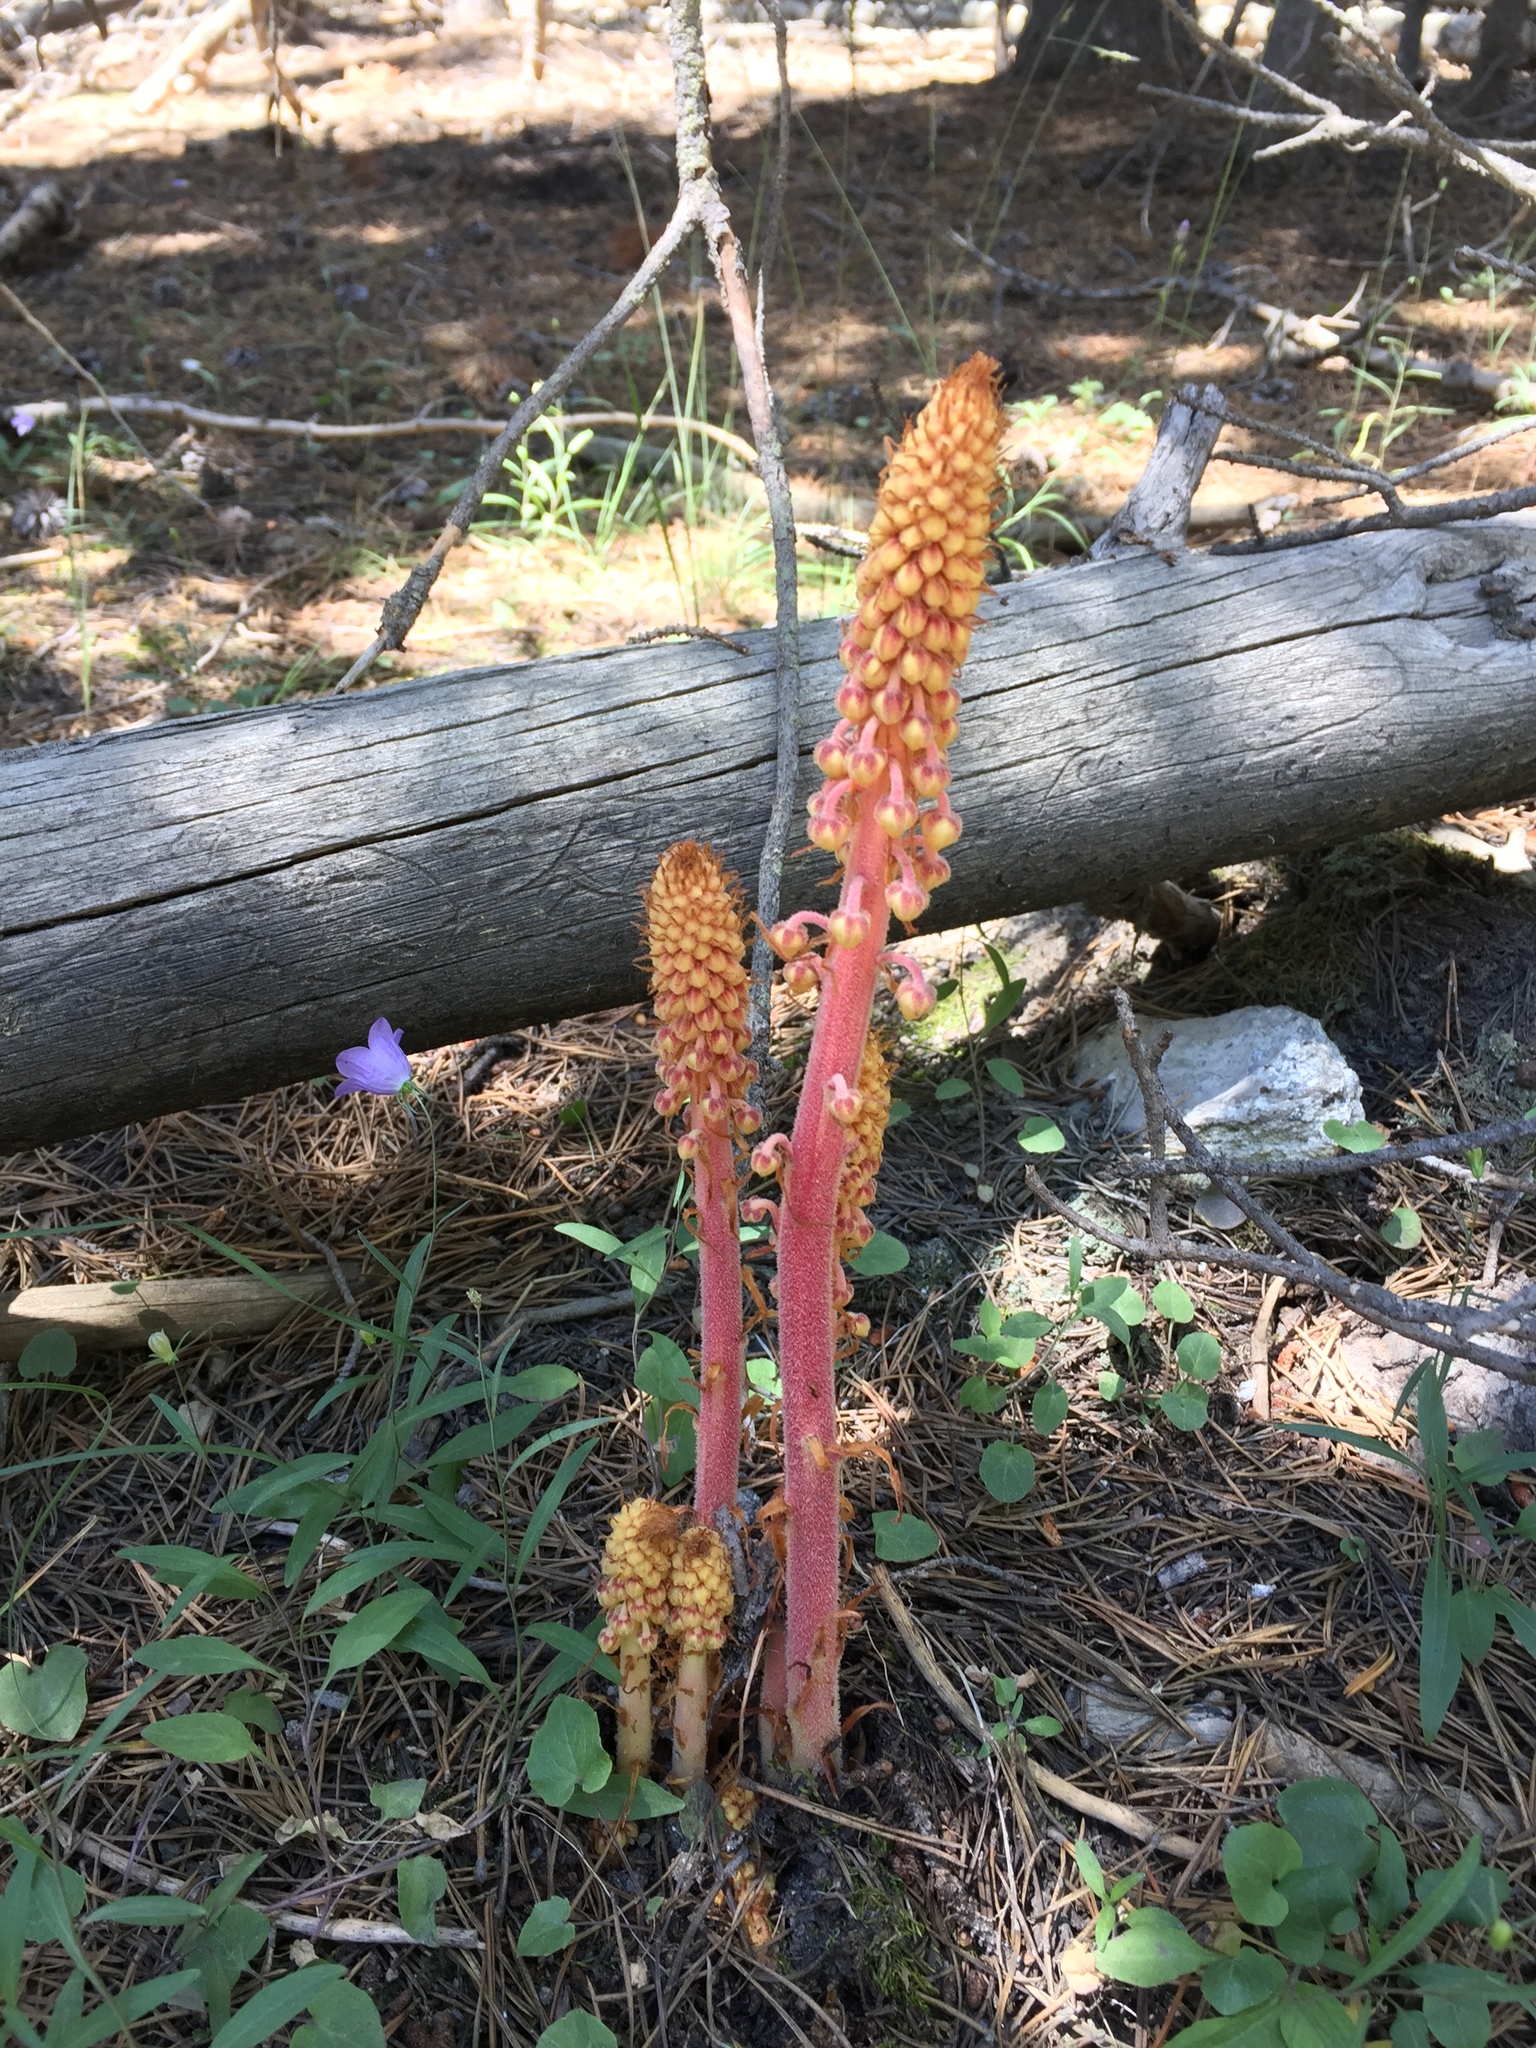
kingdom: Plantae
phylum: Tracheophyta
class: Magnoliopsida
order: Ericales
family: Ericaceae
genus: Pterospora
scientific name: Pterospora andromedea
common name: Giant bird's-nest
